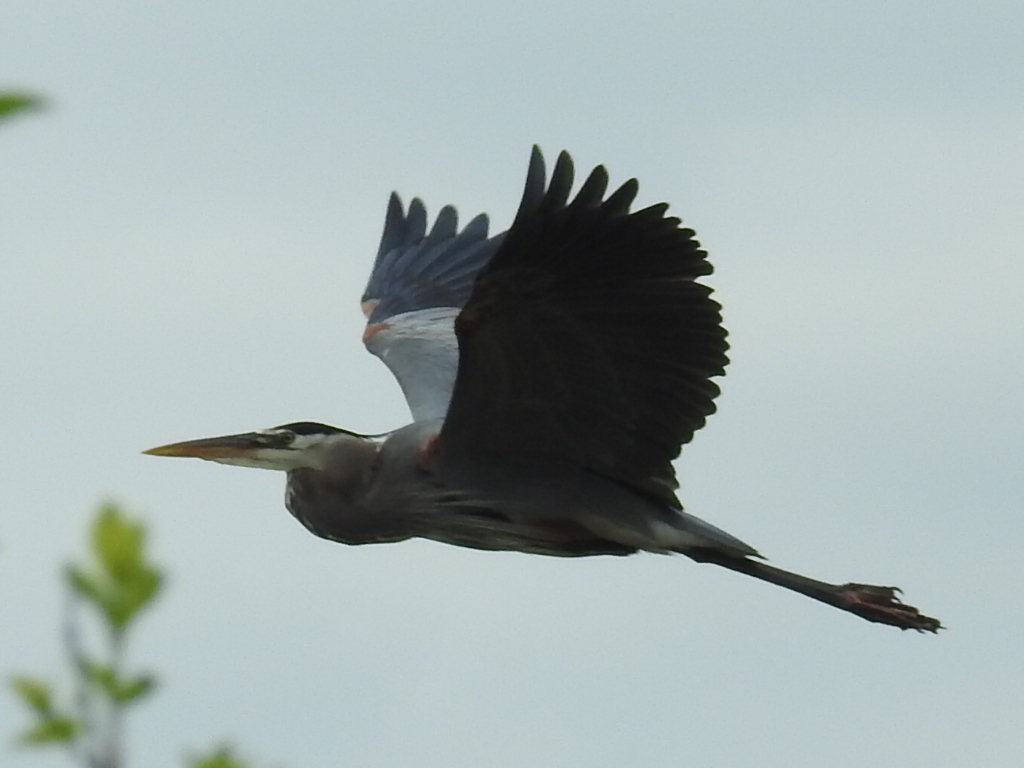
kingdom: Animalia
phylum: Chordata
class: Aves
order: Pelecaniformes
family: Ardeidae
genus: Ardea
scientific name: Ardea herodias
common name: Great blue heron
